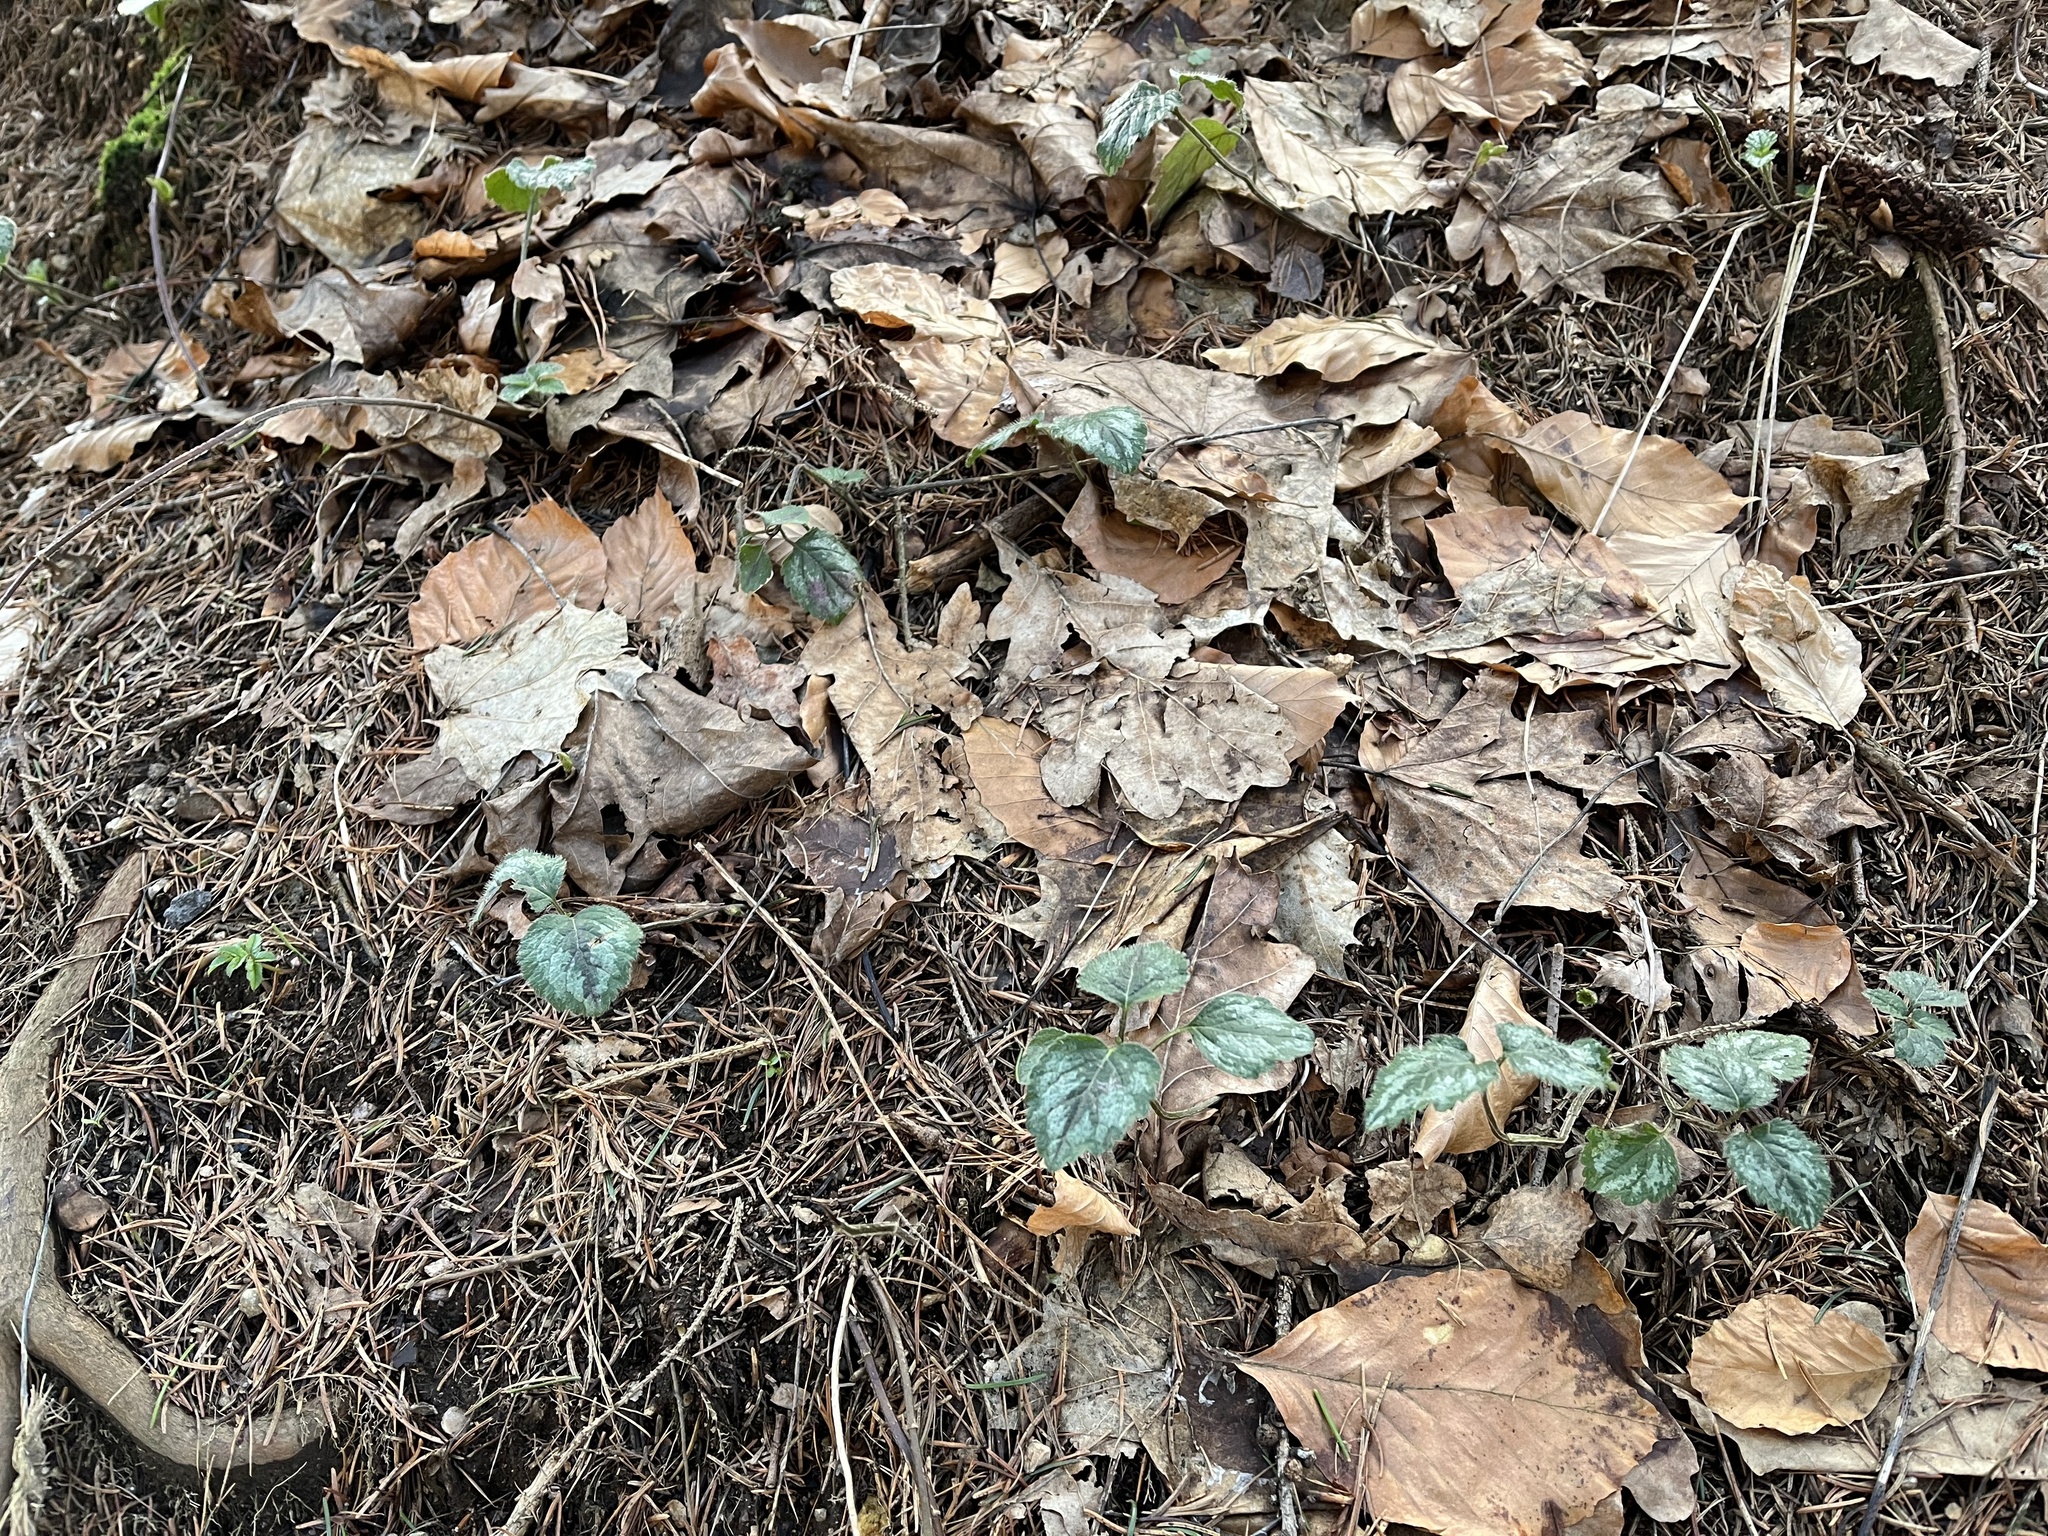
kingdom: Plantae
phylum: Tracheophyta
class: Magnoliopsida
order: Lamiales
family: Lamiaceae
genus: Lamium
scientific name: Lamium galeobdolon
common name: Yellow archangel
